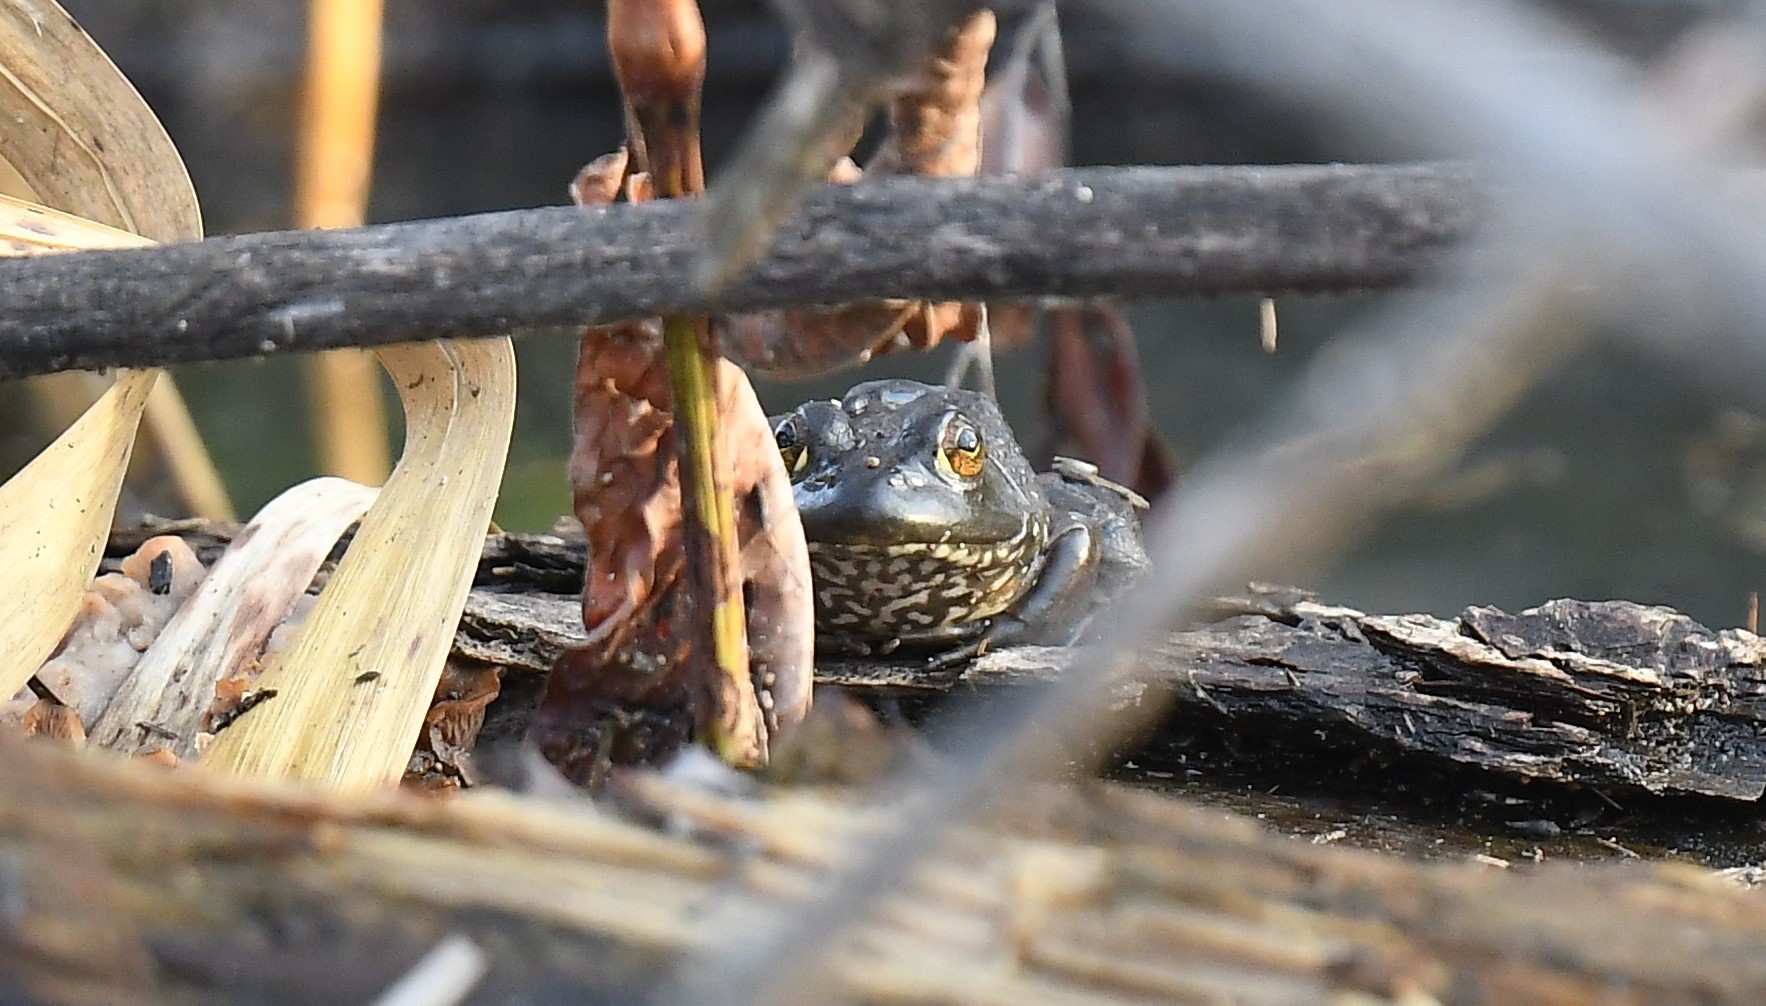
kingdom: Animalia
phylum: Chordata
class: Amphibia
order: Anura
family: Ranidae
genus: Lithobates
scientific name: Lithobates catesbeianus
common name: American bullfrog
